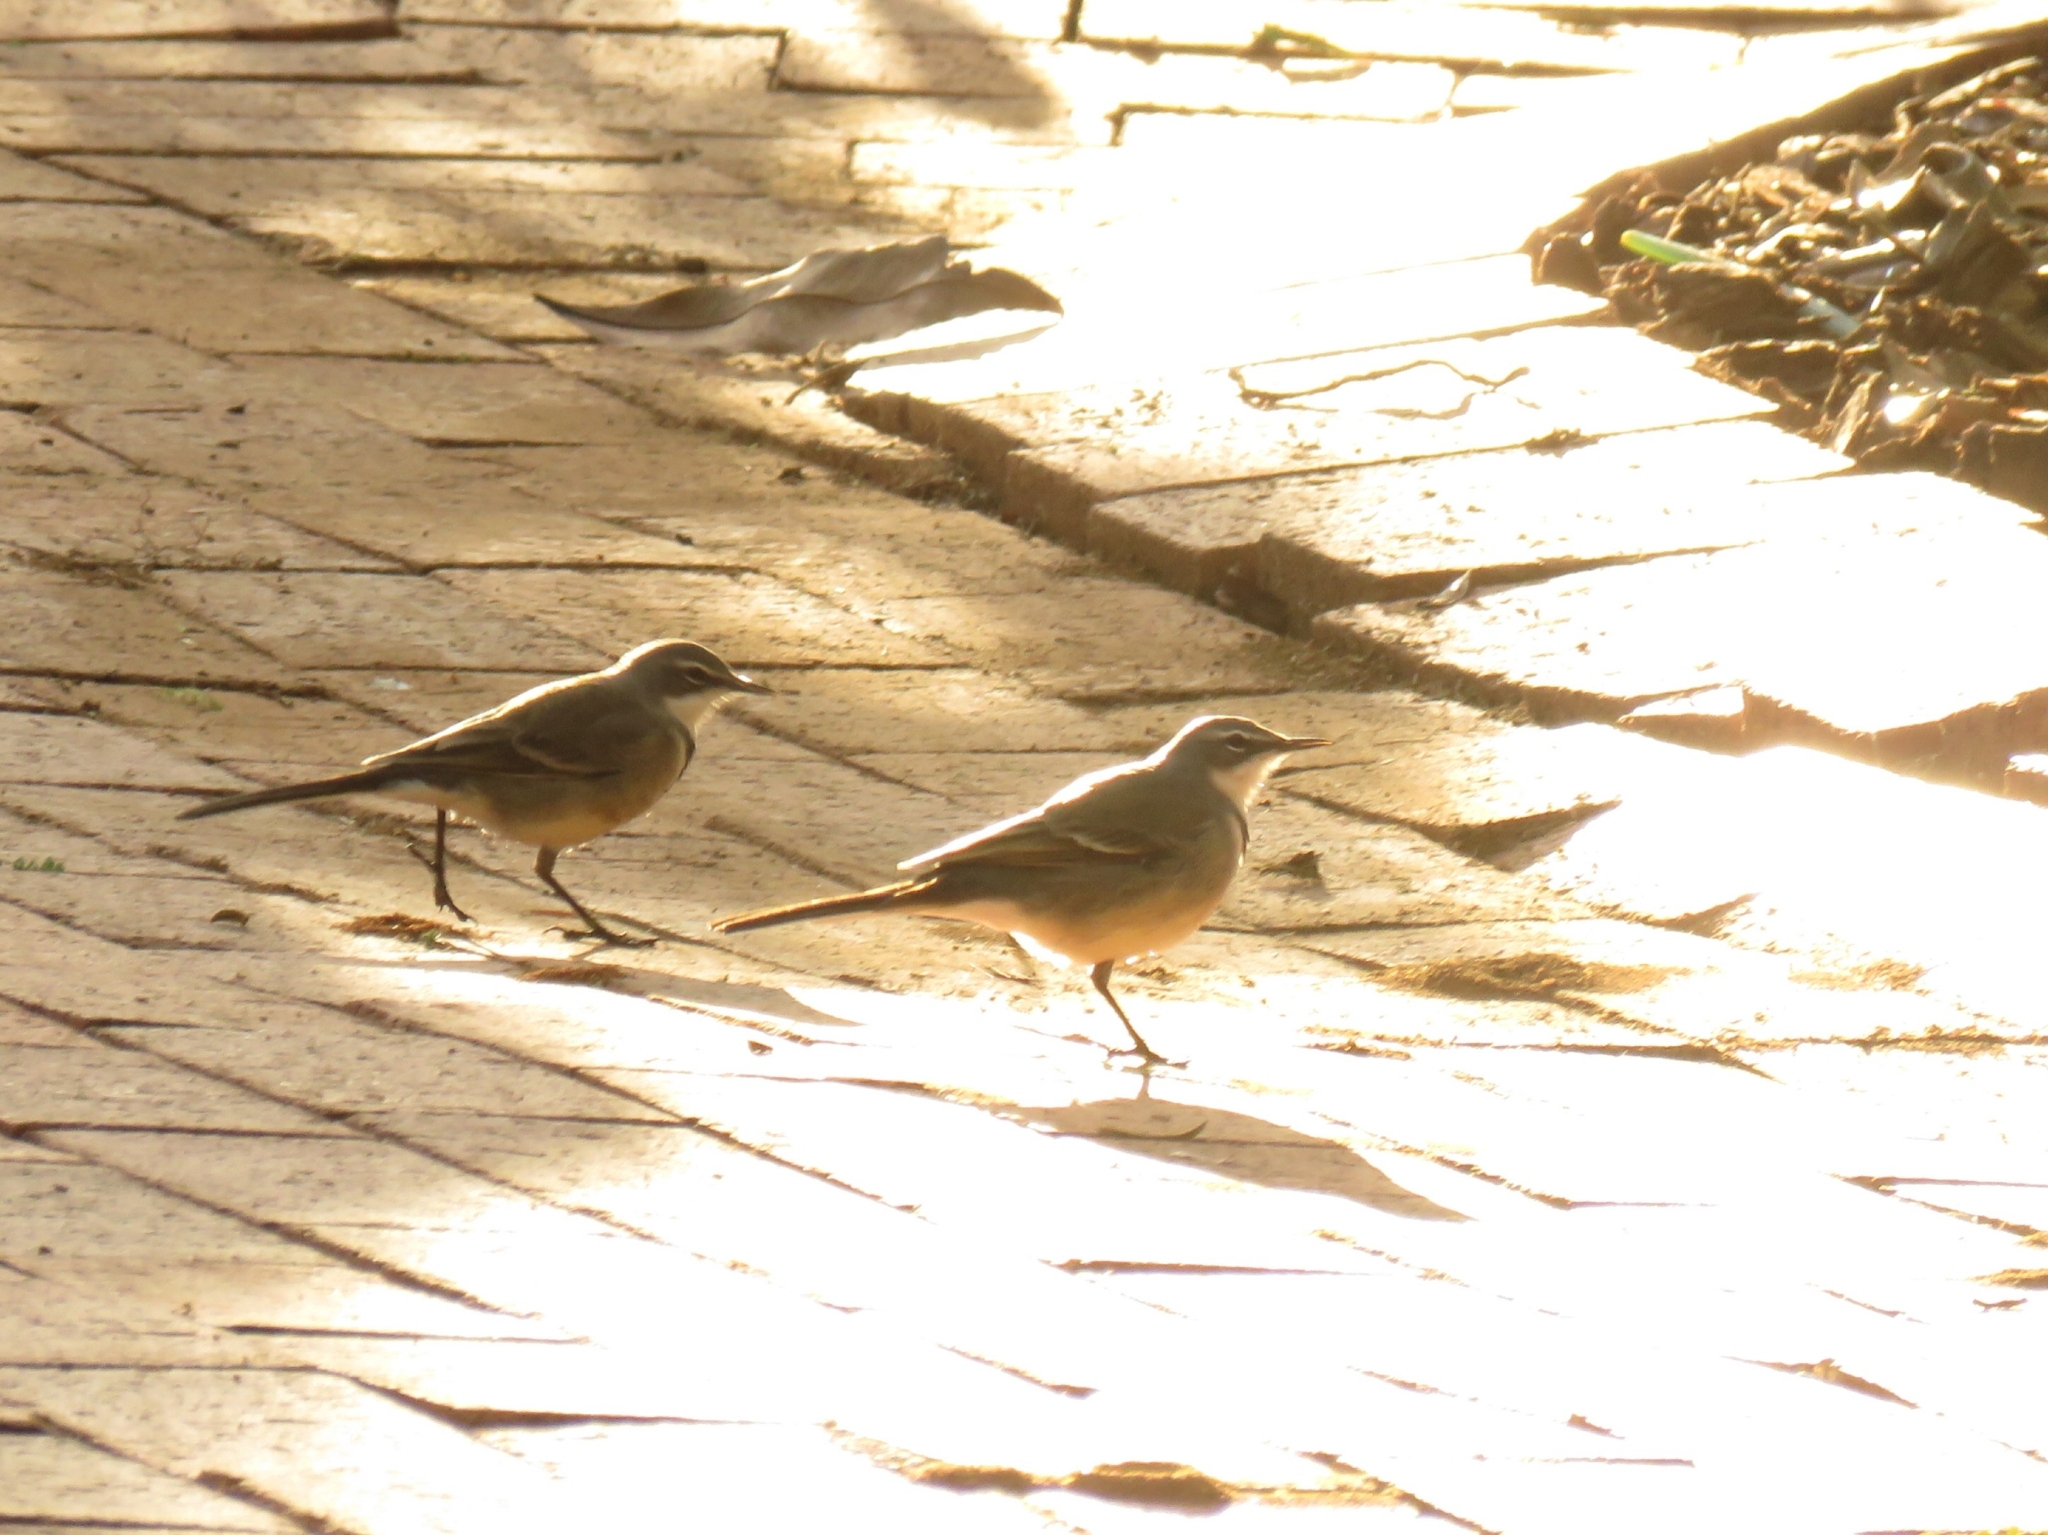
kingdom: Animalia
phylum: Chordata
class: Aves
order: Passeriformes
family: Motacillidae
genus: Motacilla
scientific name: Motacilla capensis
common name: Cape wagtail
